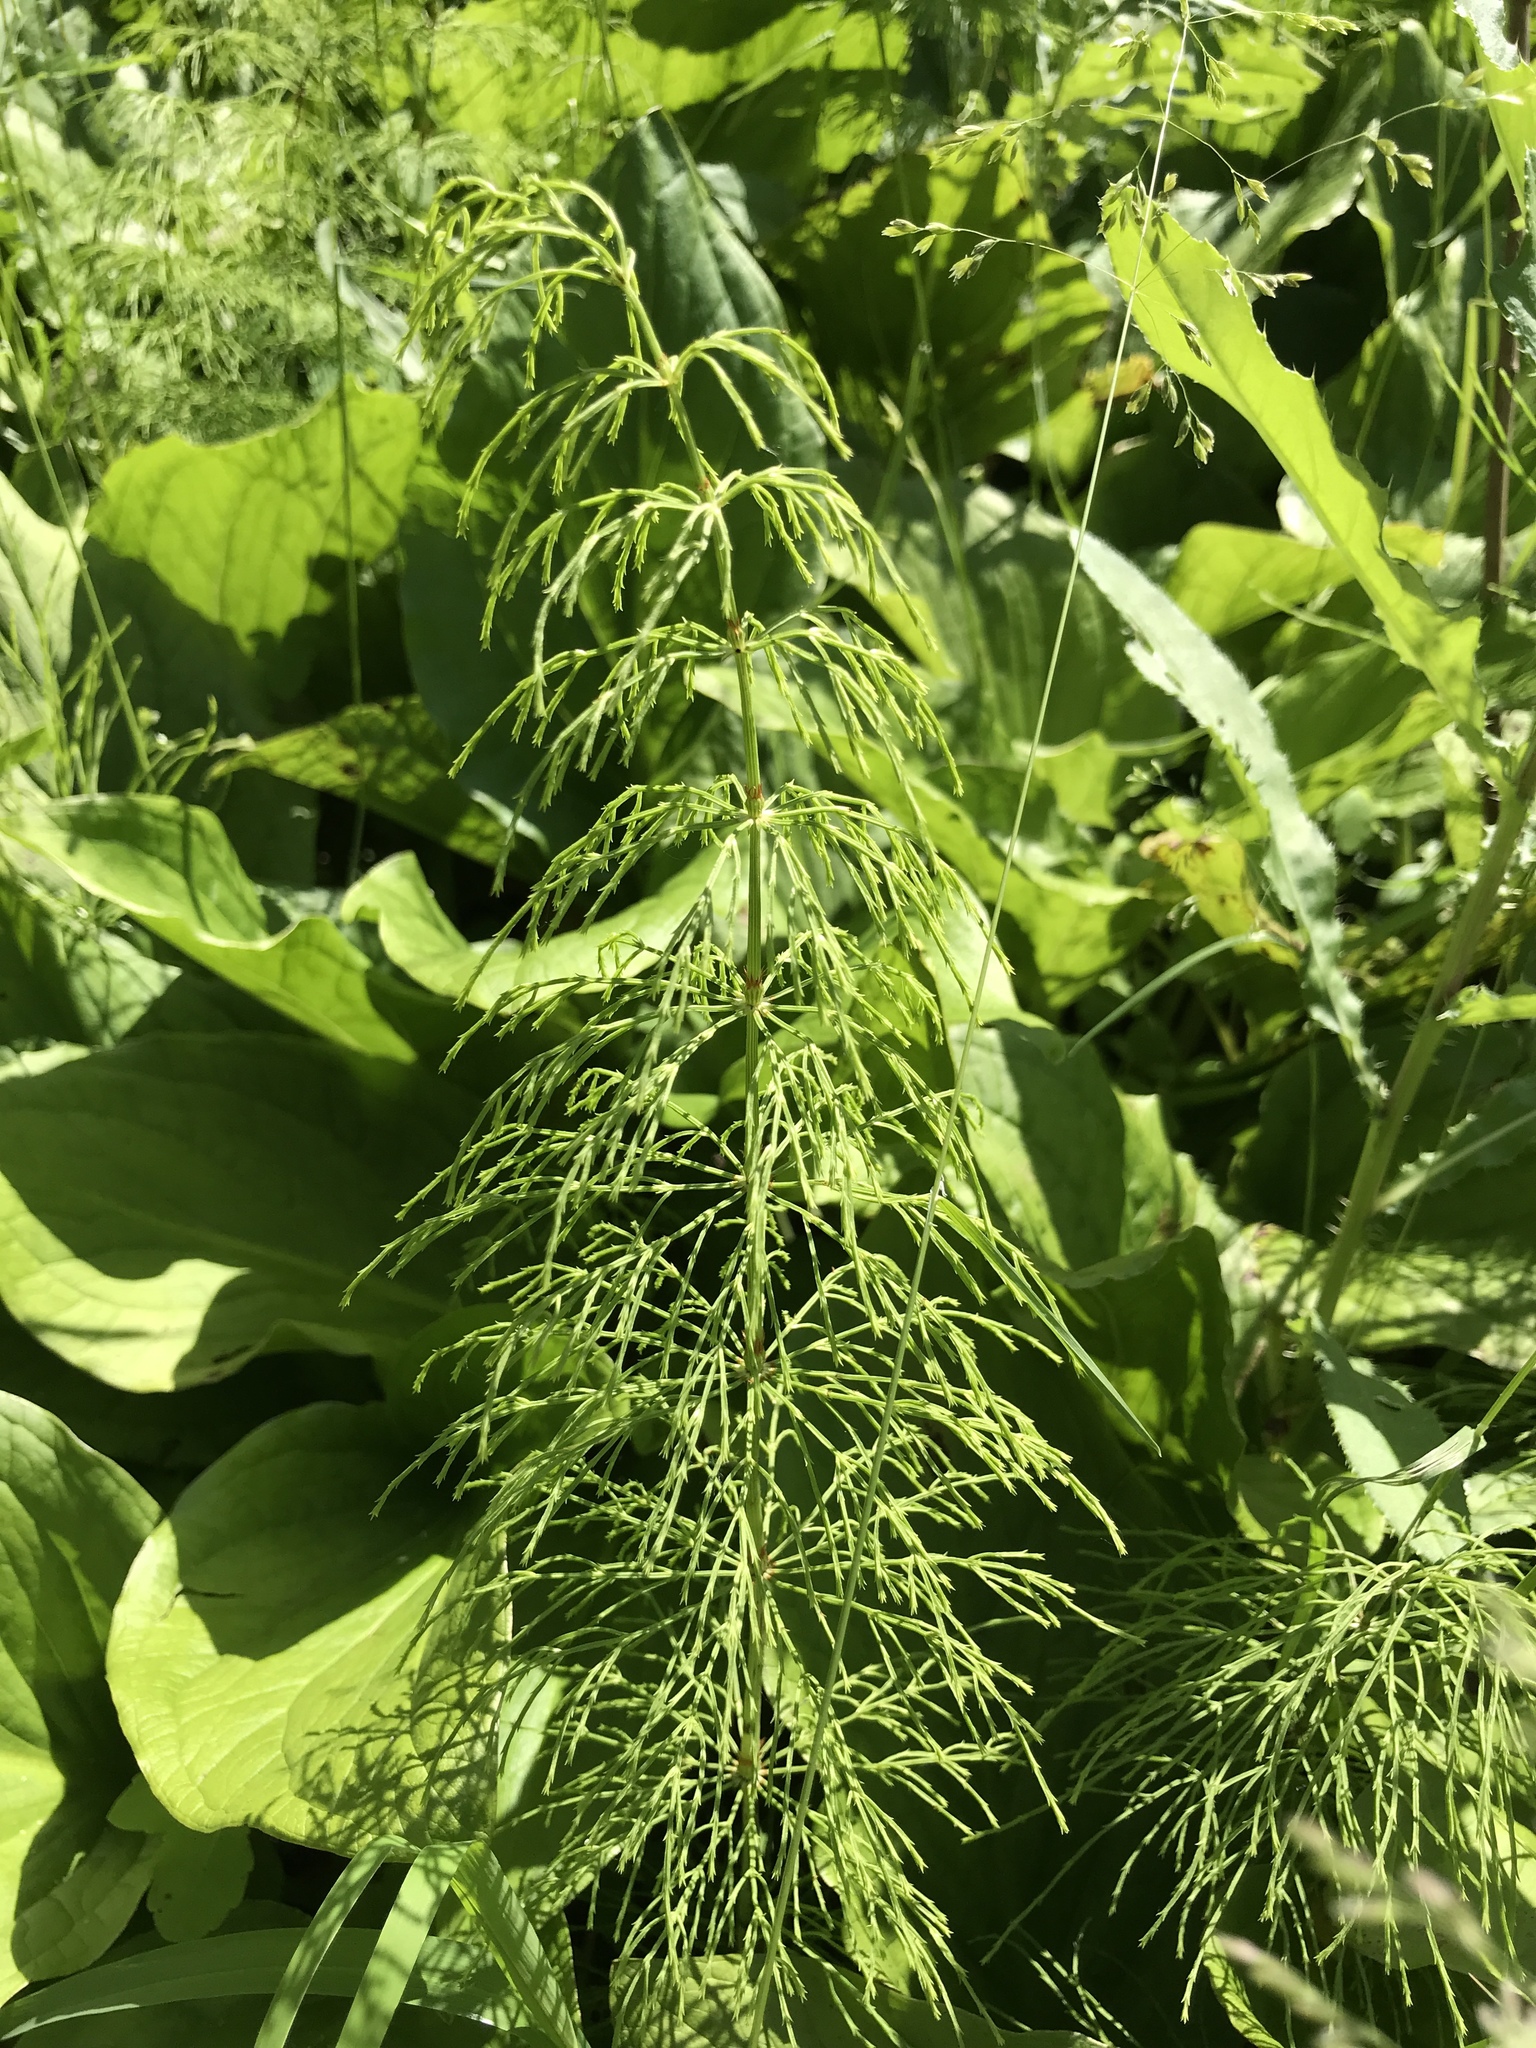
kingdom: Plantae
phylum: Tracheophyta
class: Polypodiopsida
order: Equisetales
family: Equisetaceae
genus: Equisetum
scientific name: Equisetum sylvaticum
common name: Wood horsetail
